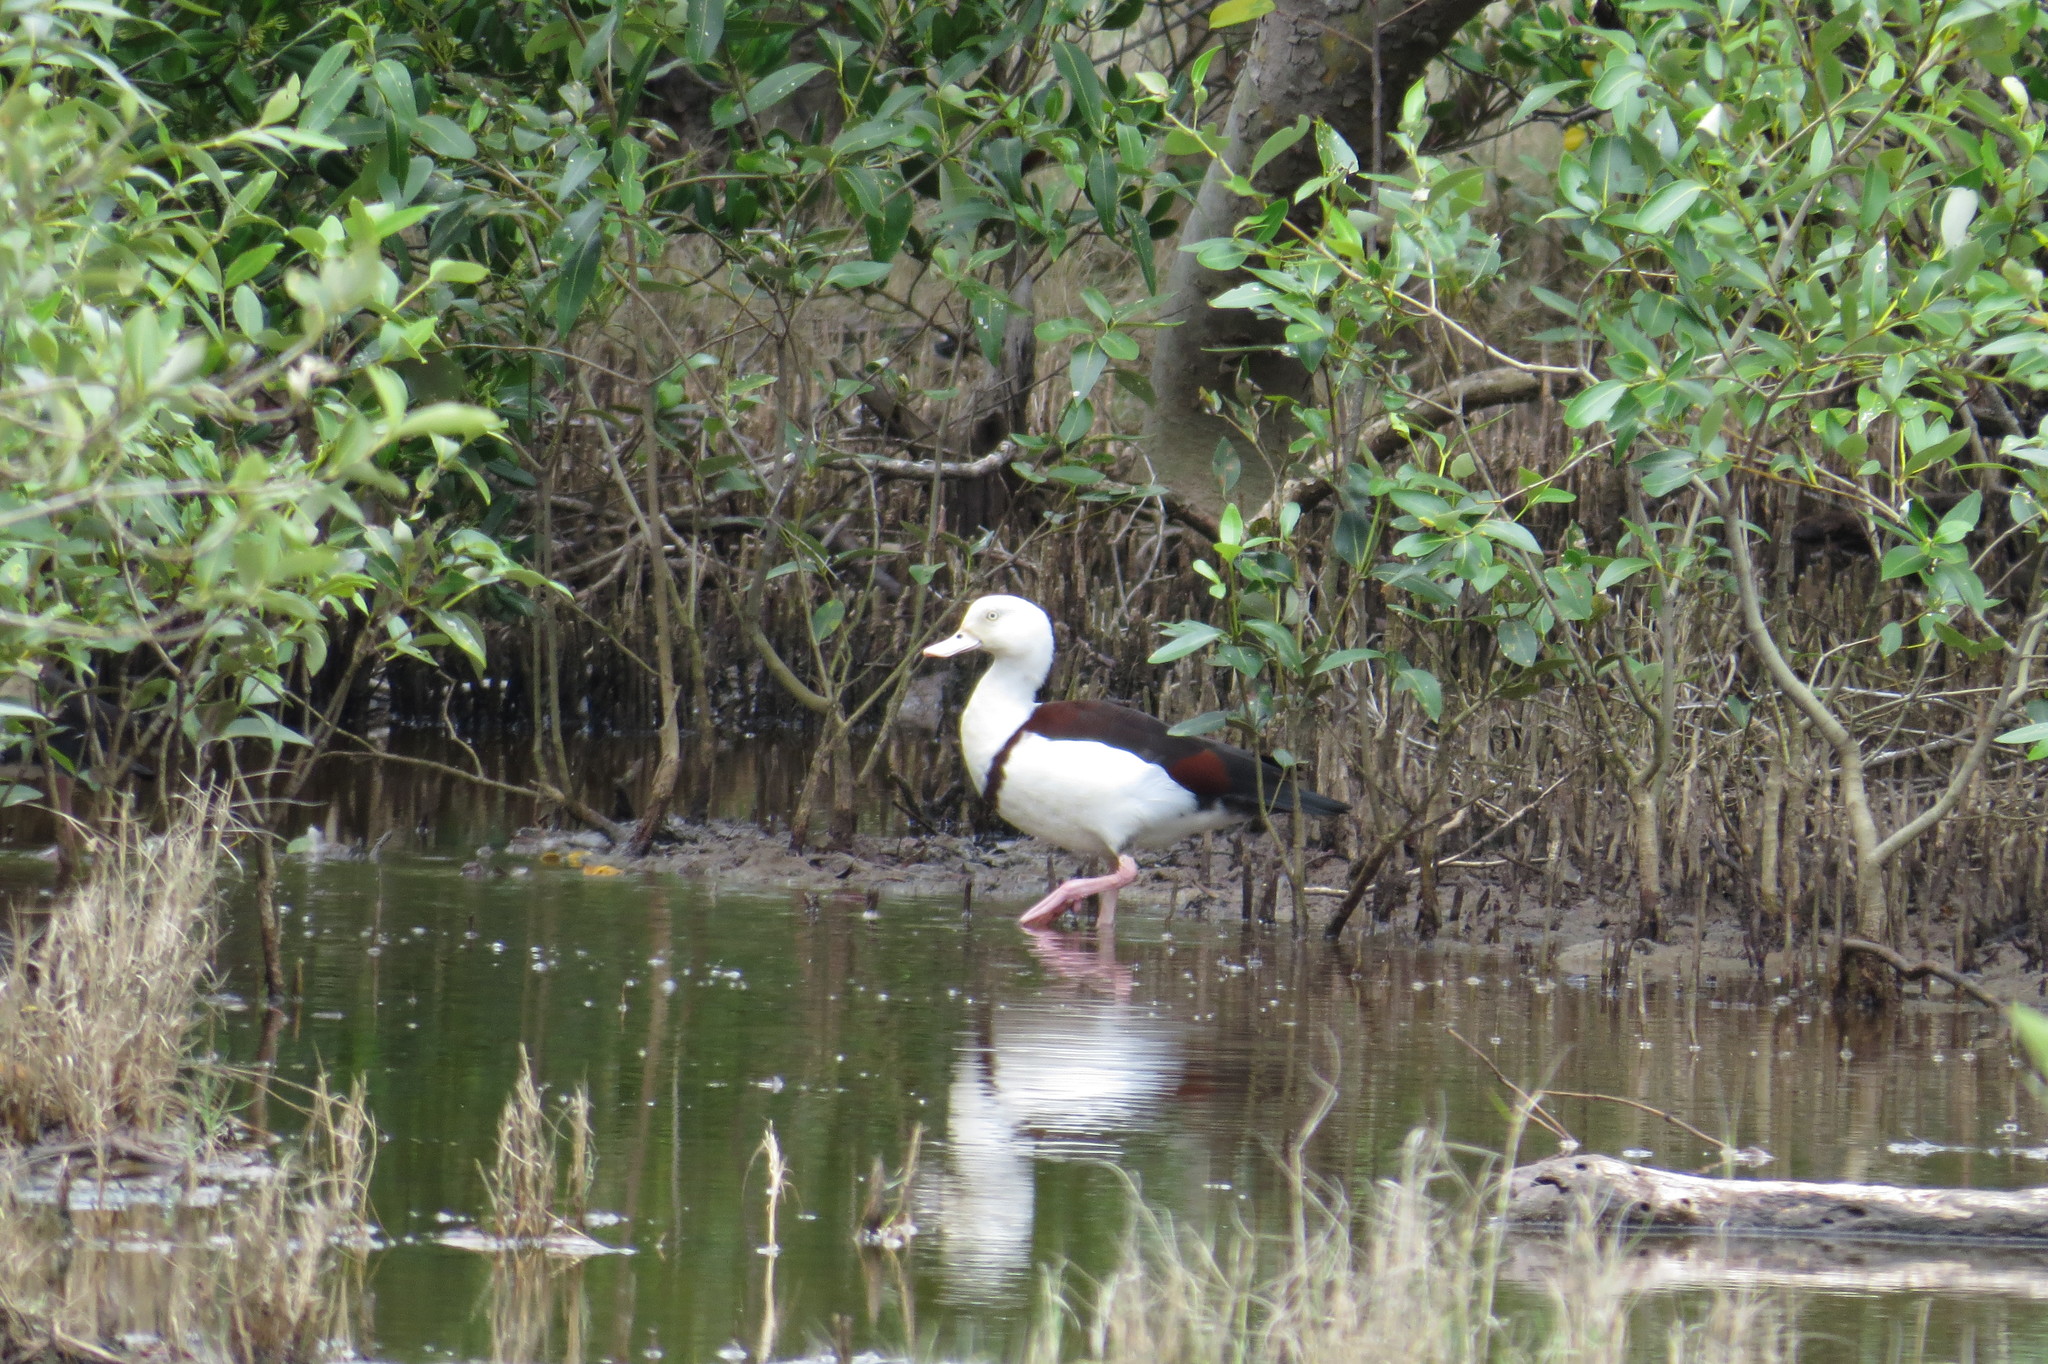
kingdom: Animalia
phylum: Chordata
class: Aves
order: Anseriformes
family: Anatidae
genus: Radjah
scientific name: Radjah radjah
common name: Radjah shelduck
